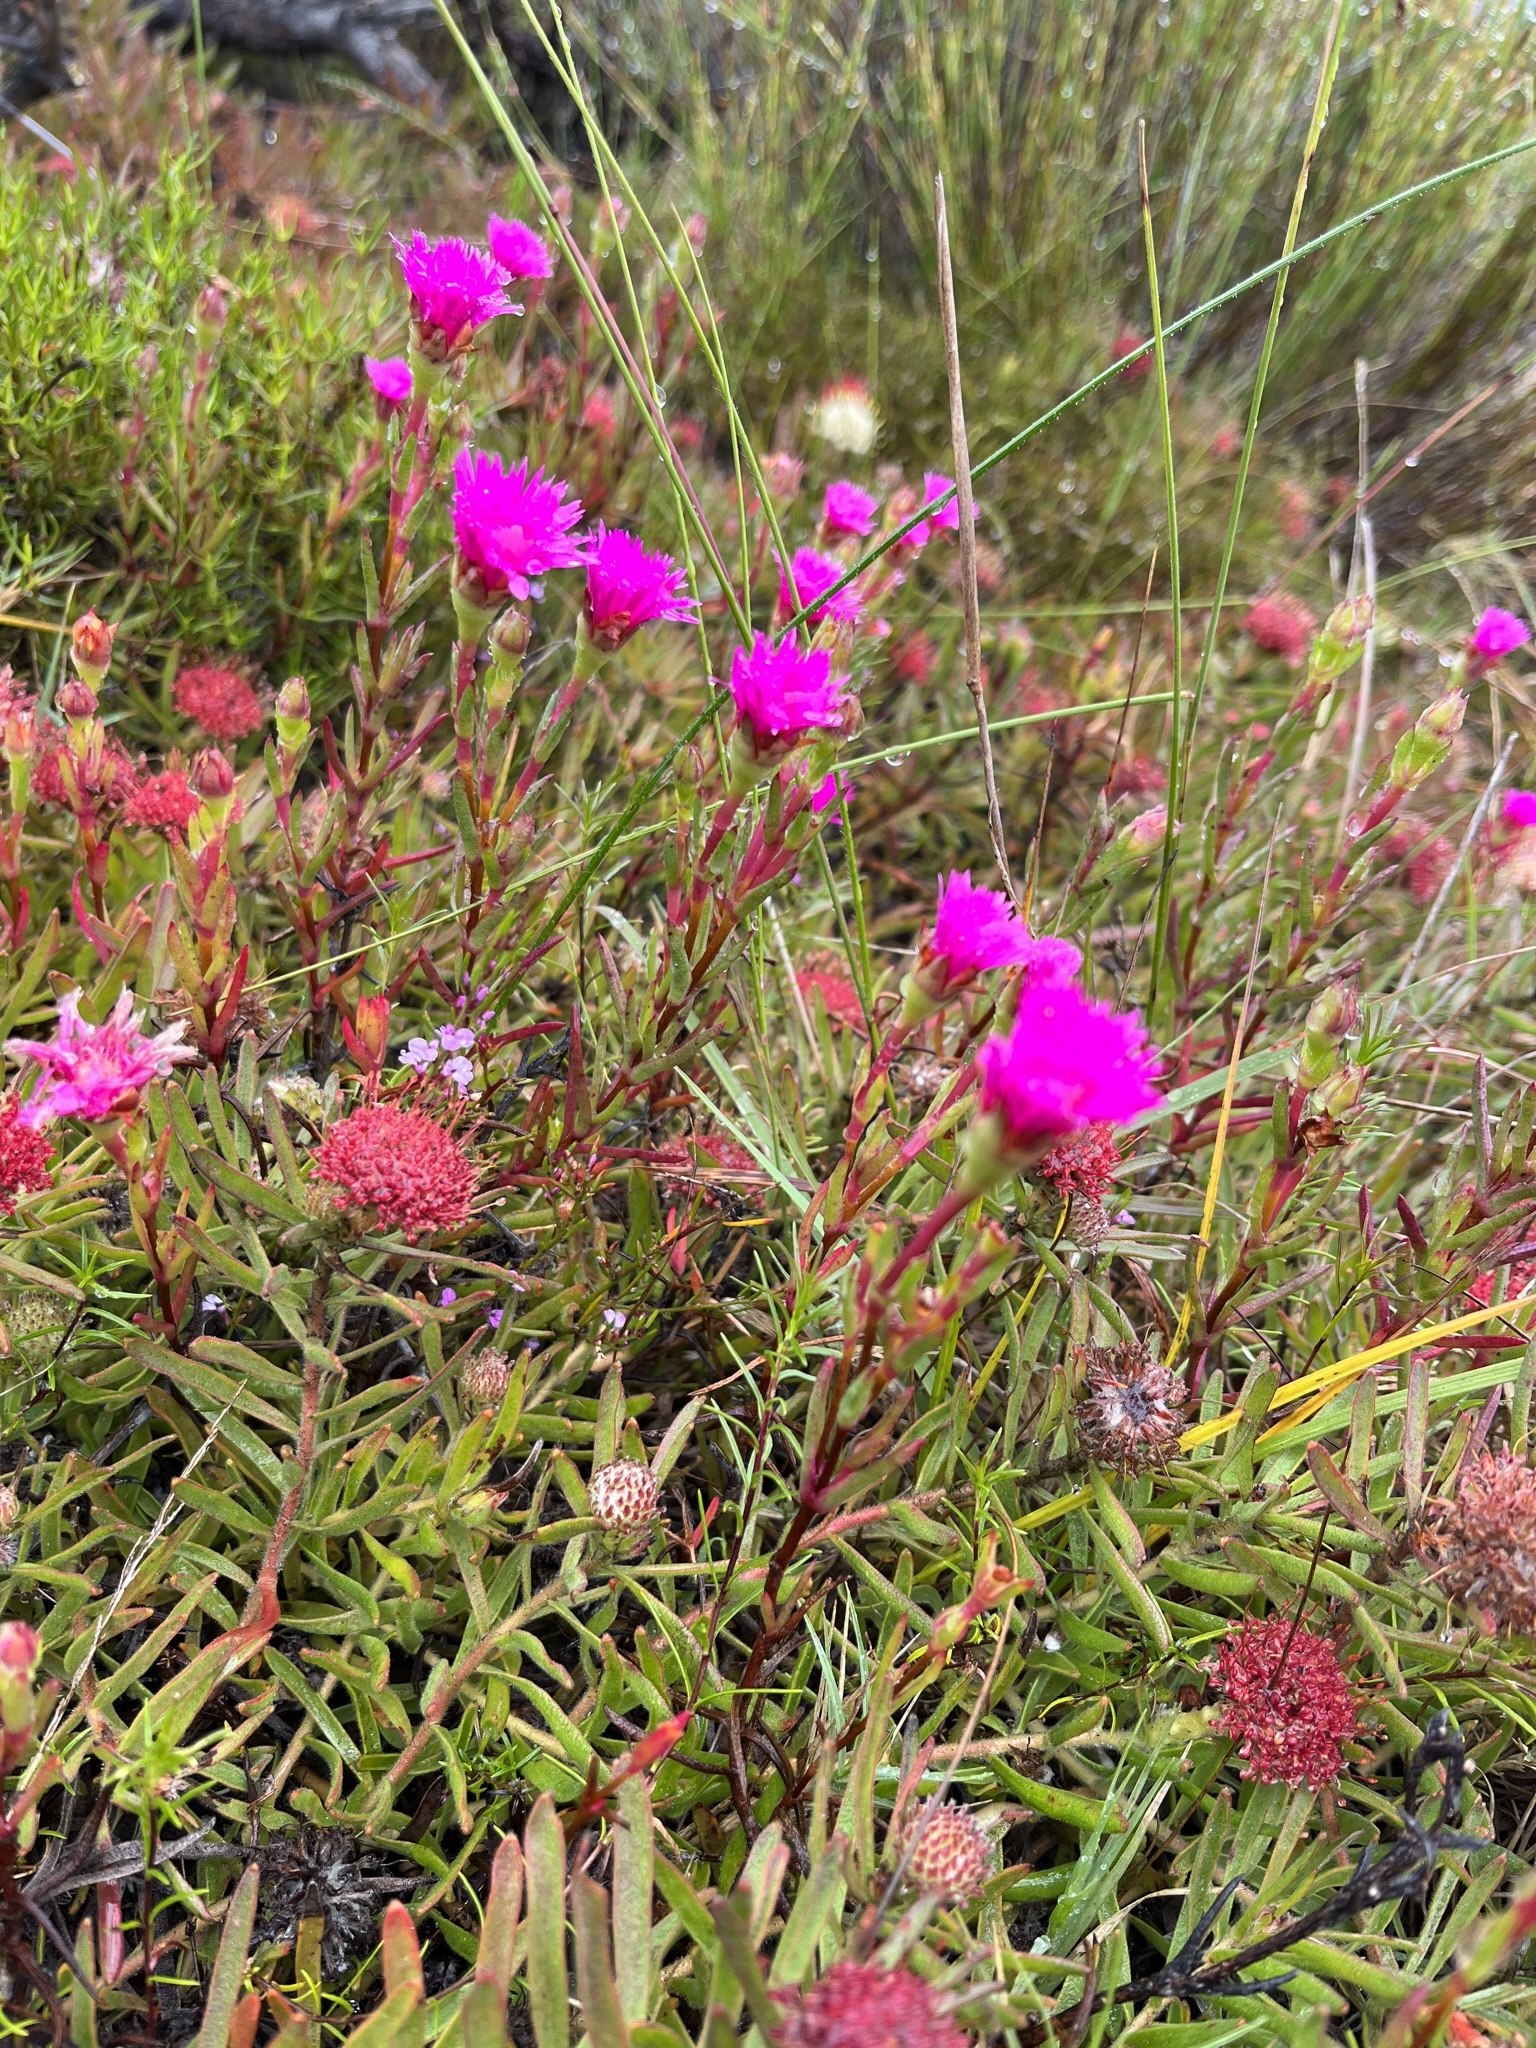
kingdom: Plantae
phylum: Tracheophyta
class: Magnoliopsida
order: Caryophyllales
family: Aizoaceae
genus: Lampranthus
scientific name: Lampranthus tenuifolius
